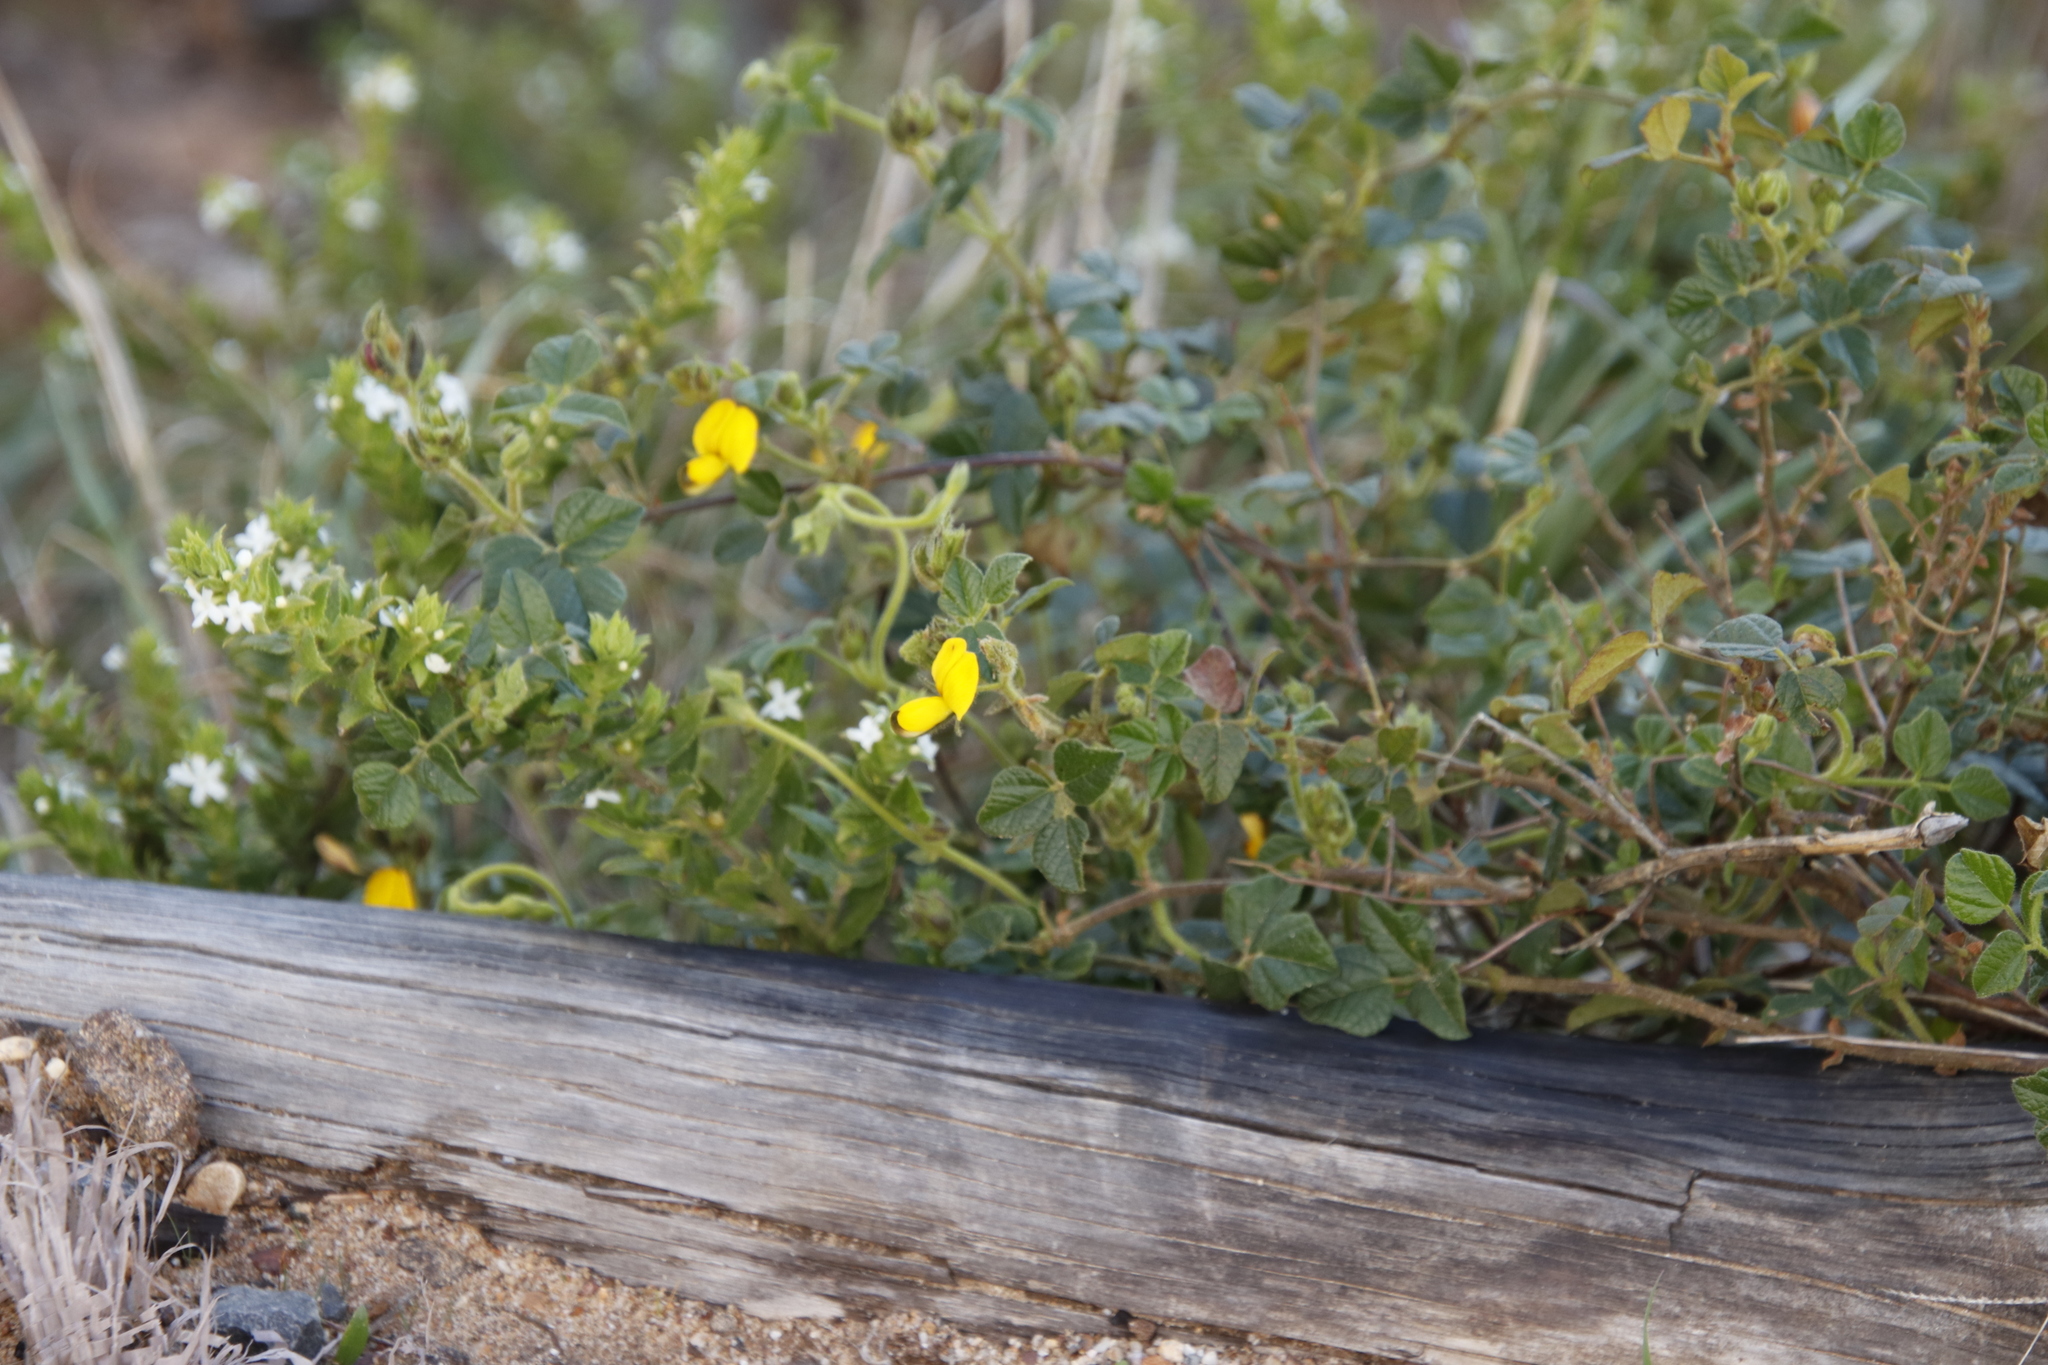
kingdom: Plantae
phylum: Tracheophyta
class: Magnoliopsida
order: Fabales
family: Fabaceae
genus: Bolusafra
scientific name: Bolusafra bituminosa
